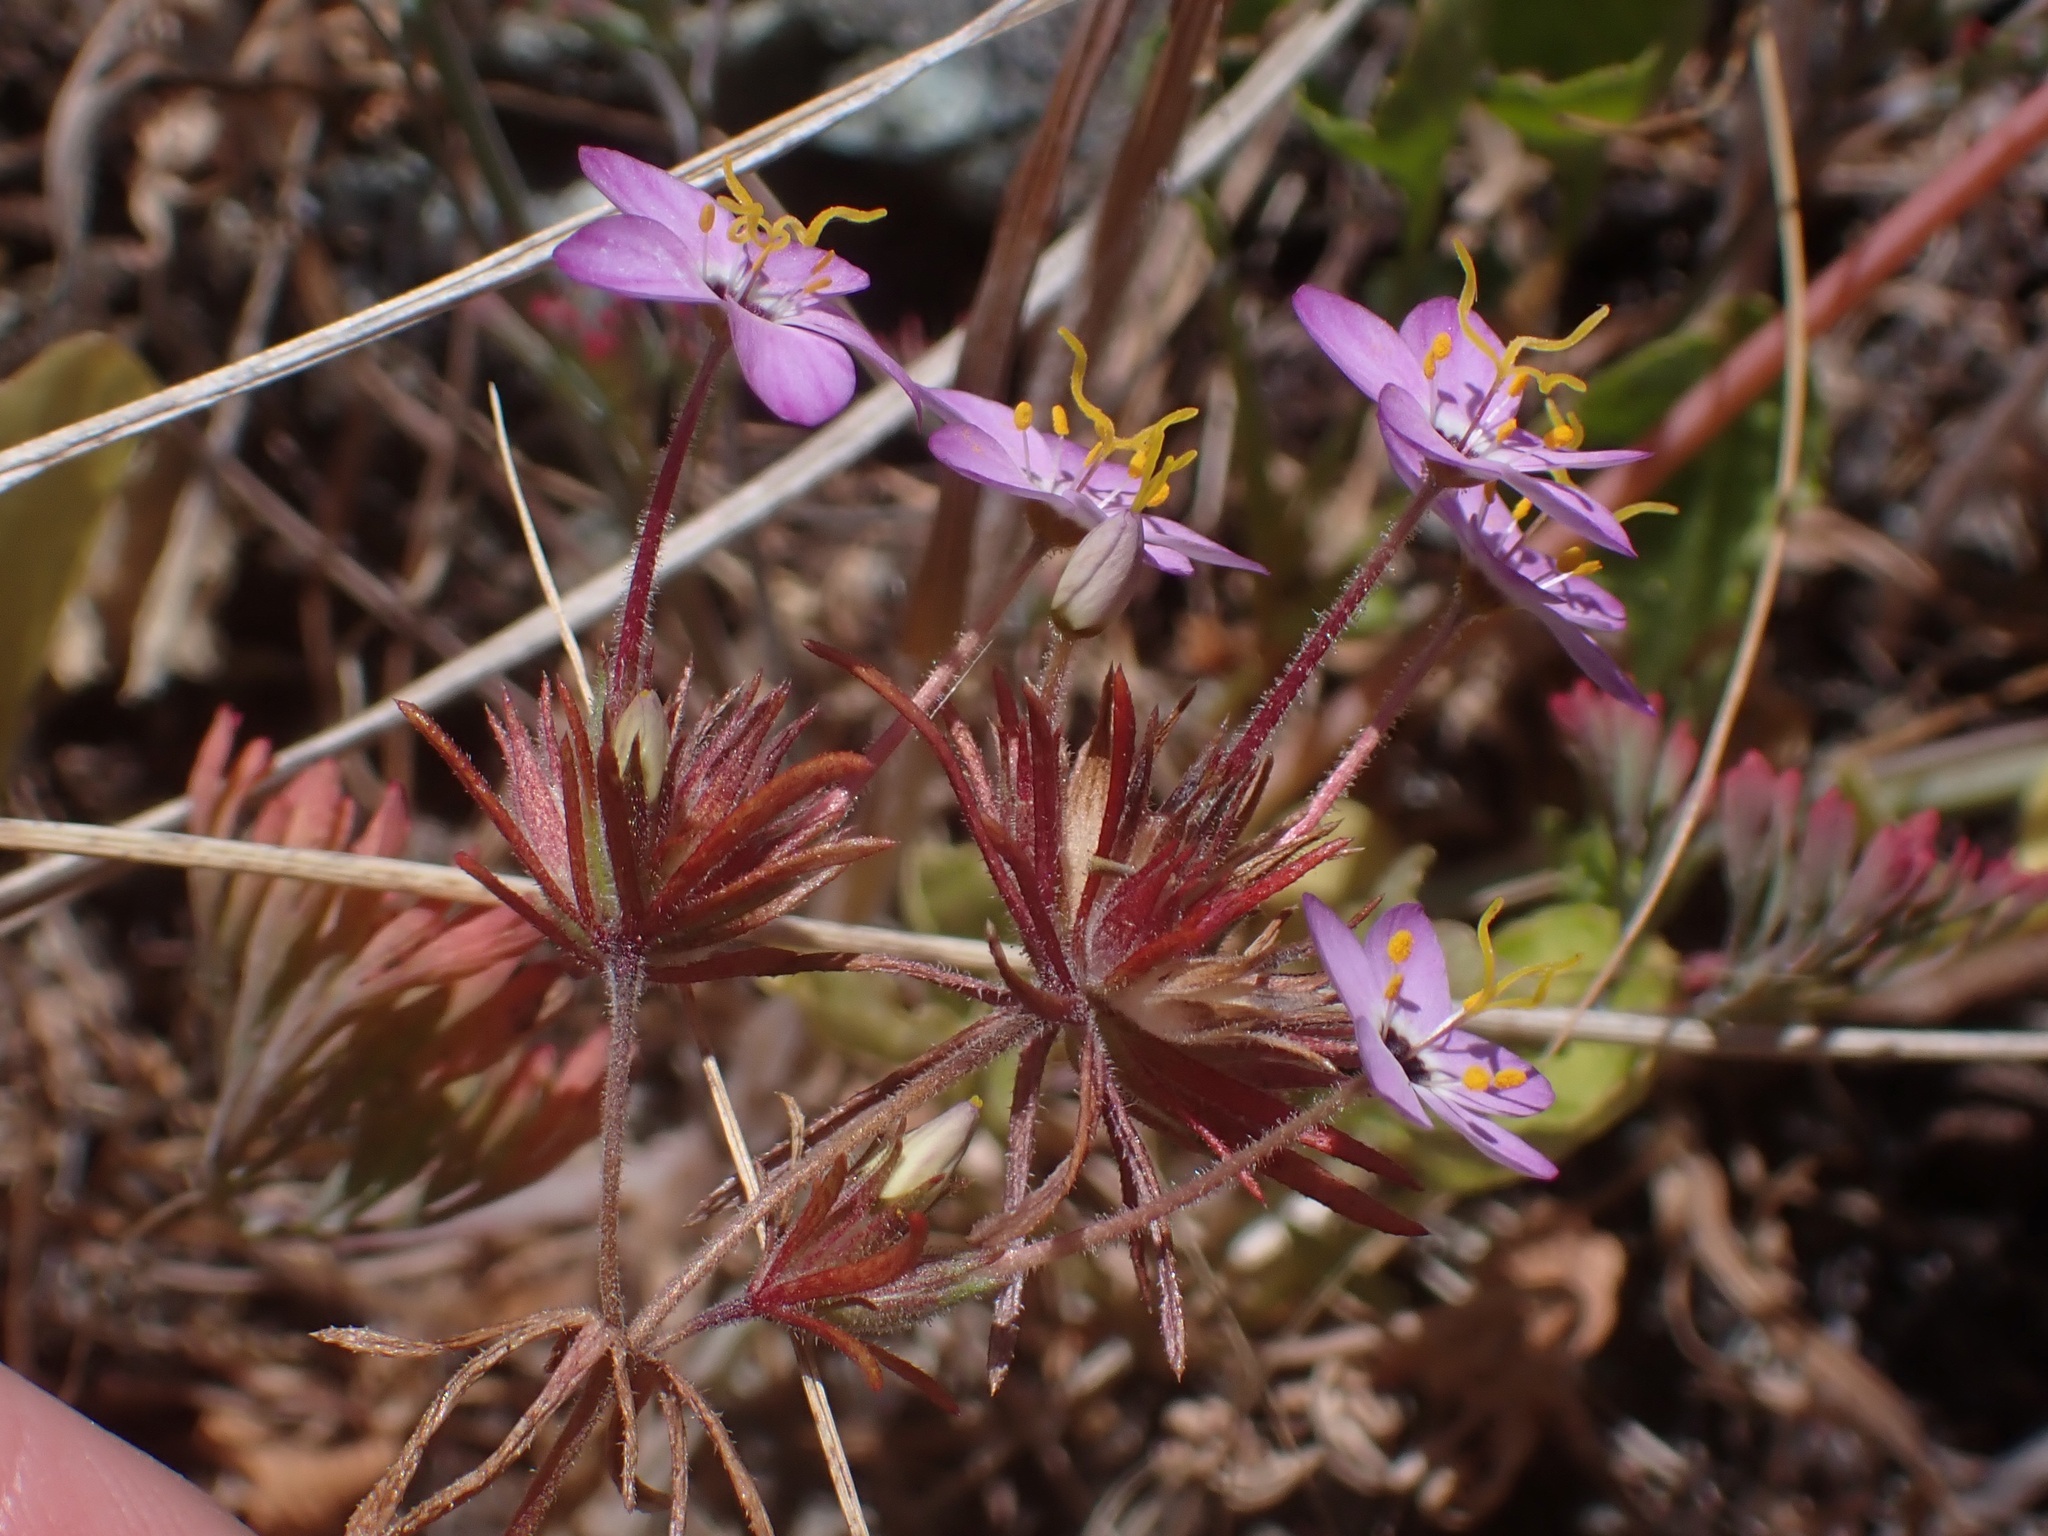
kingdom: Plantae
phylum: Tracheophyta
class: Magnoliopsida
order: Ericales
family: Polemoniaceae
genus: Leptosiphon
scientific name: Leptosiphon parviflorus
